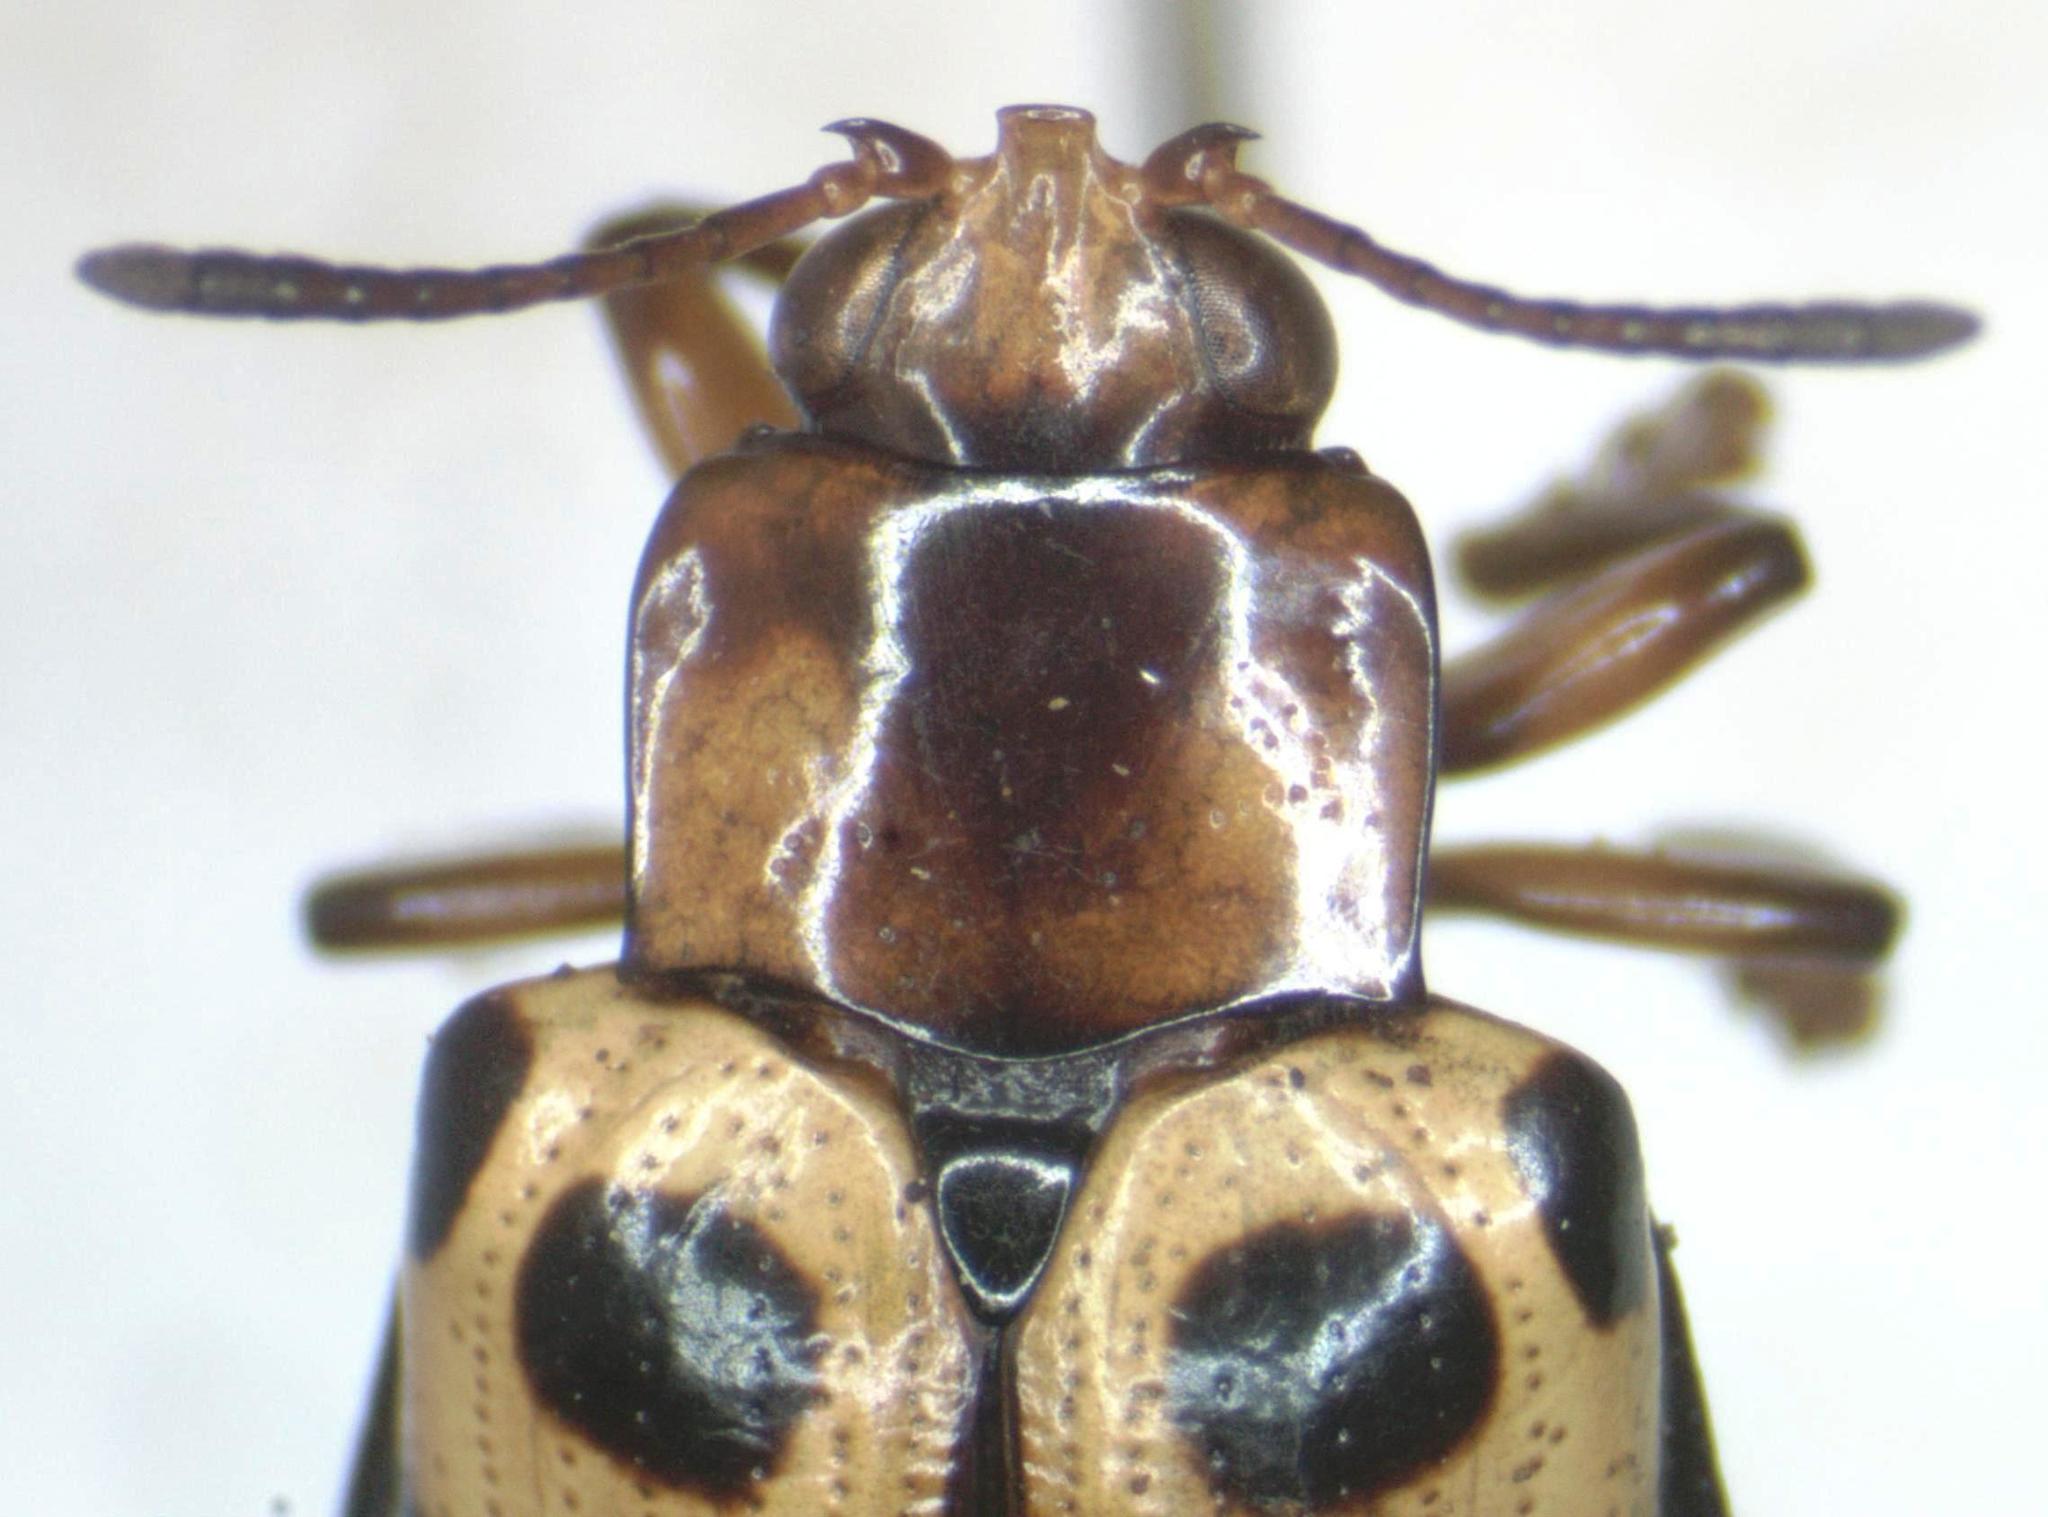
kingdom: Animalia
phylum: Arthropoda
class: Insecta
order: Coleoptera
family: Chrysomelidae
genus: Chelobasis
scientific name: Chelobasis bicolor
